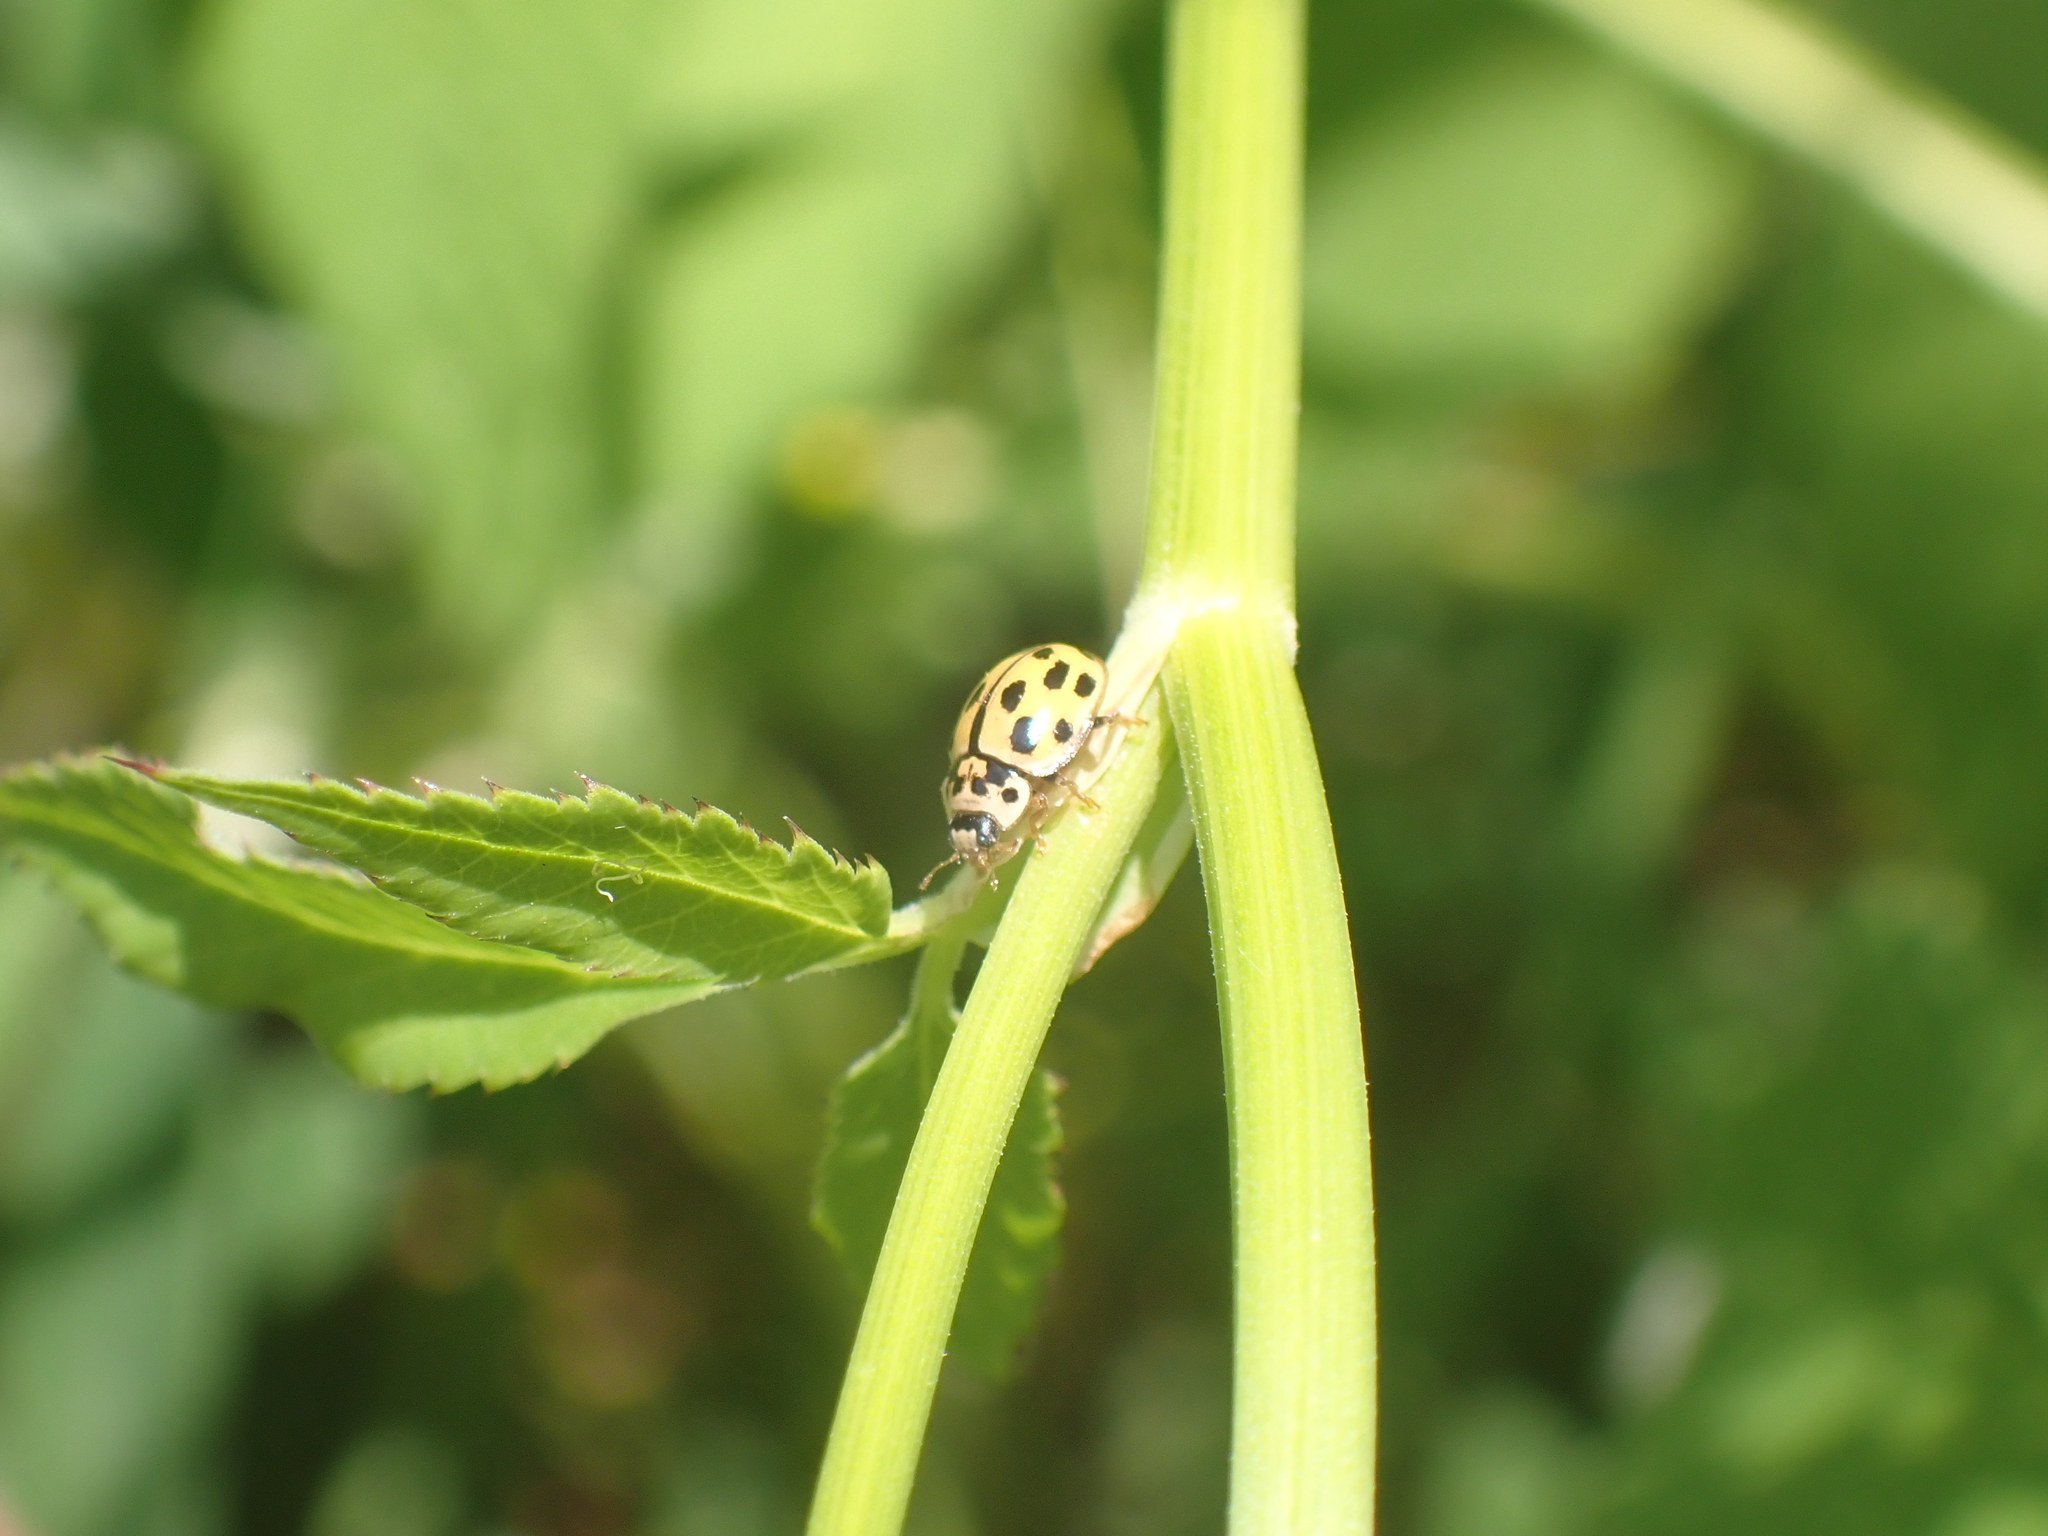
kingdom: Animalia
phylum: Arthropoda
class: Insecta
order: Coleoptera
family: Coccinellidae
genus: Propylaea
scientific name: Propylaea quatuordecimpunctata
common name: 14-spotted ladybird beetle
